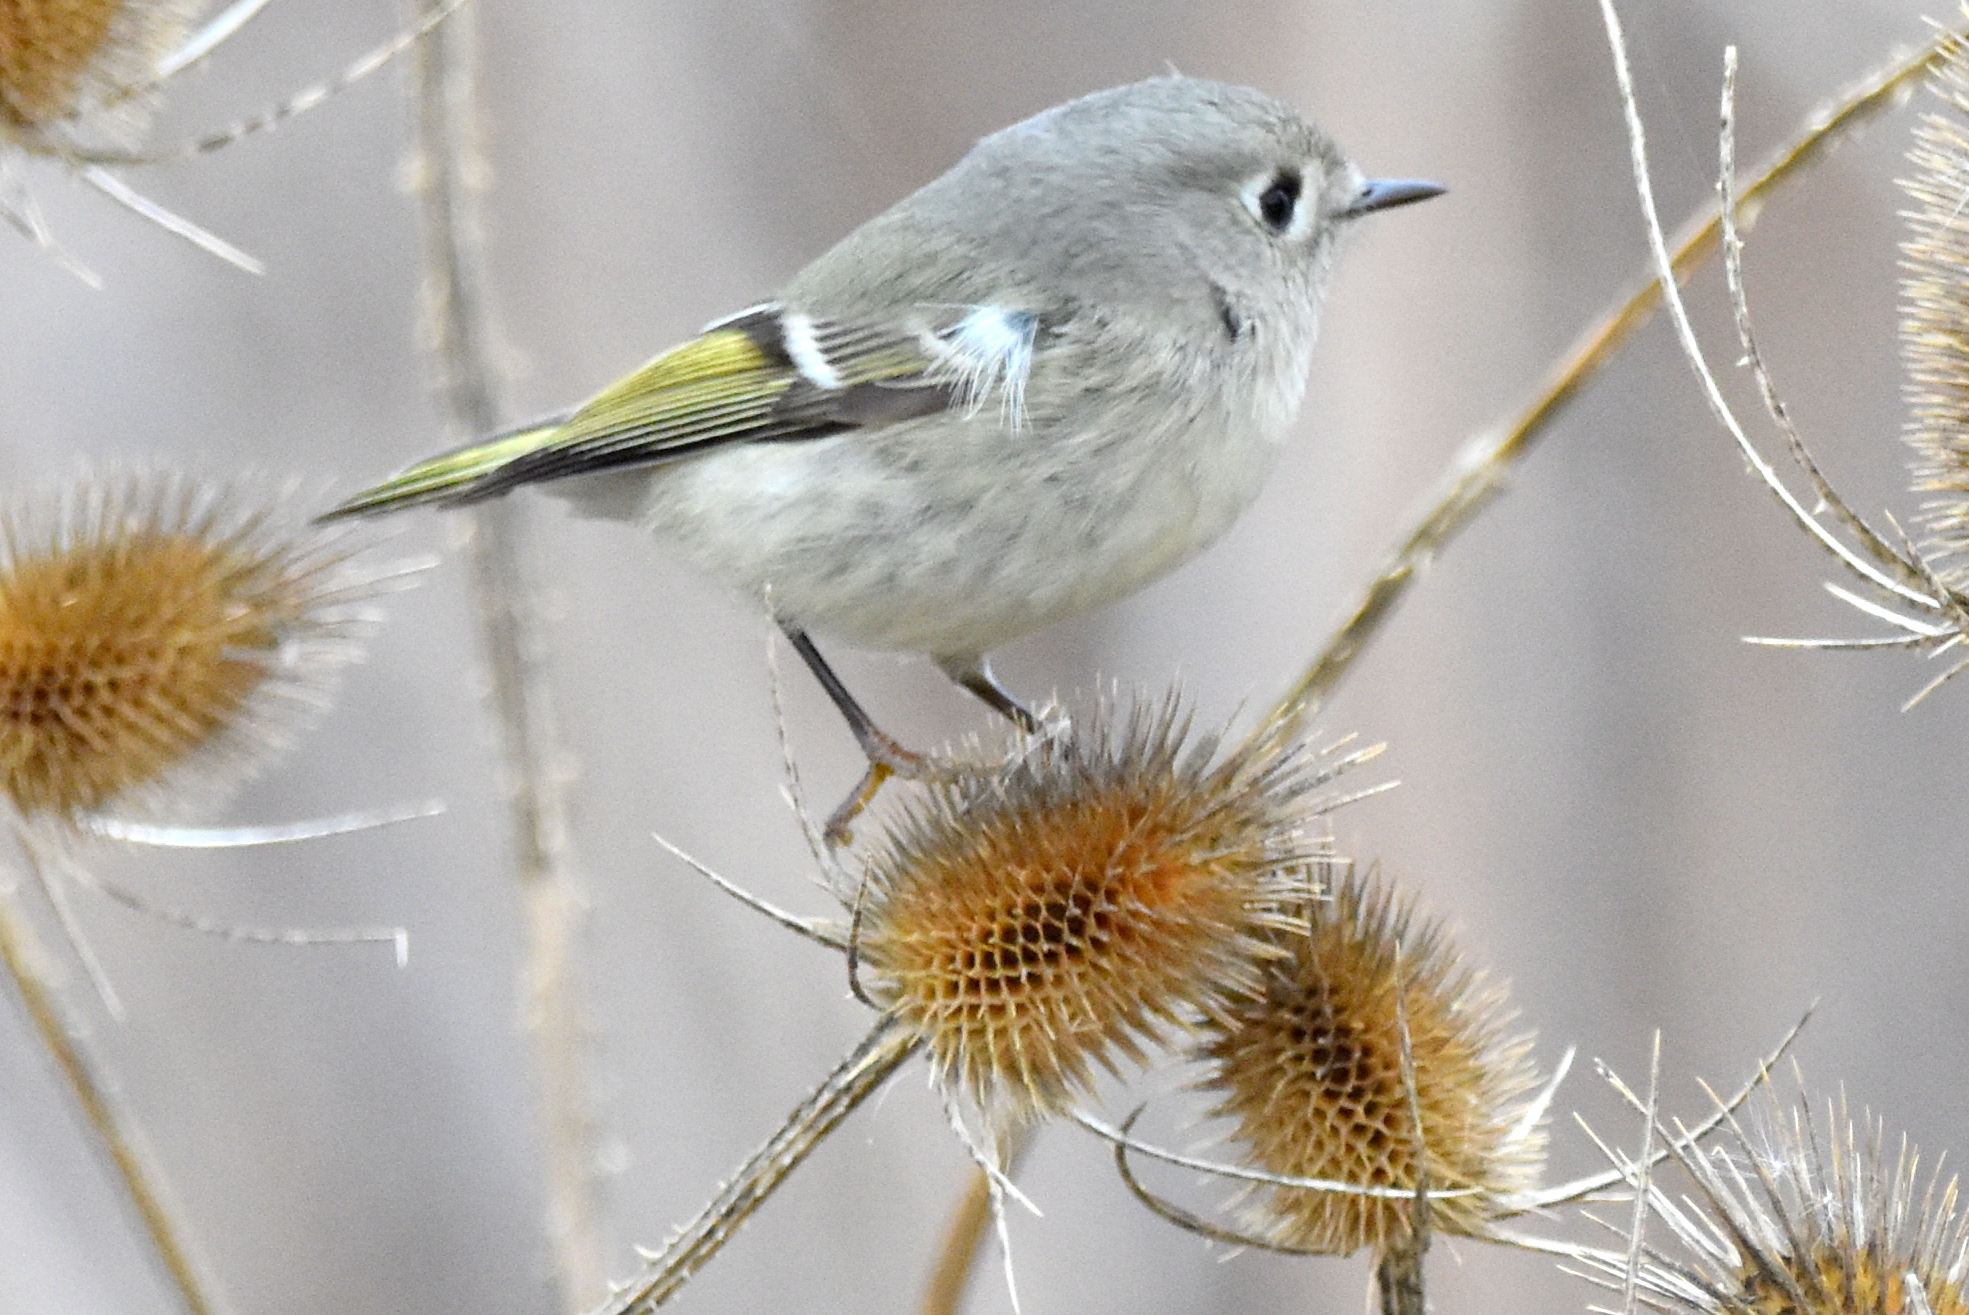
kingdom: Animalia
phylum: Chordata
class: Aves
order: Passeriformes
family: Regulidae
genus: Regulus
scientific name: Regulus calendula
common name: Ruby-crowned kinglet
